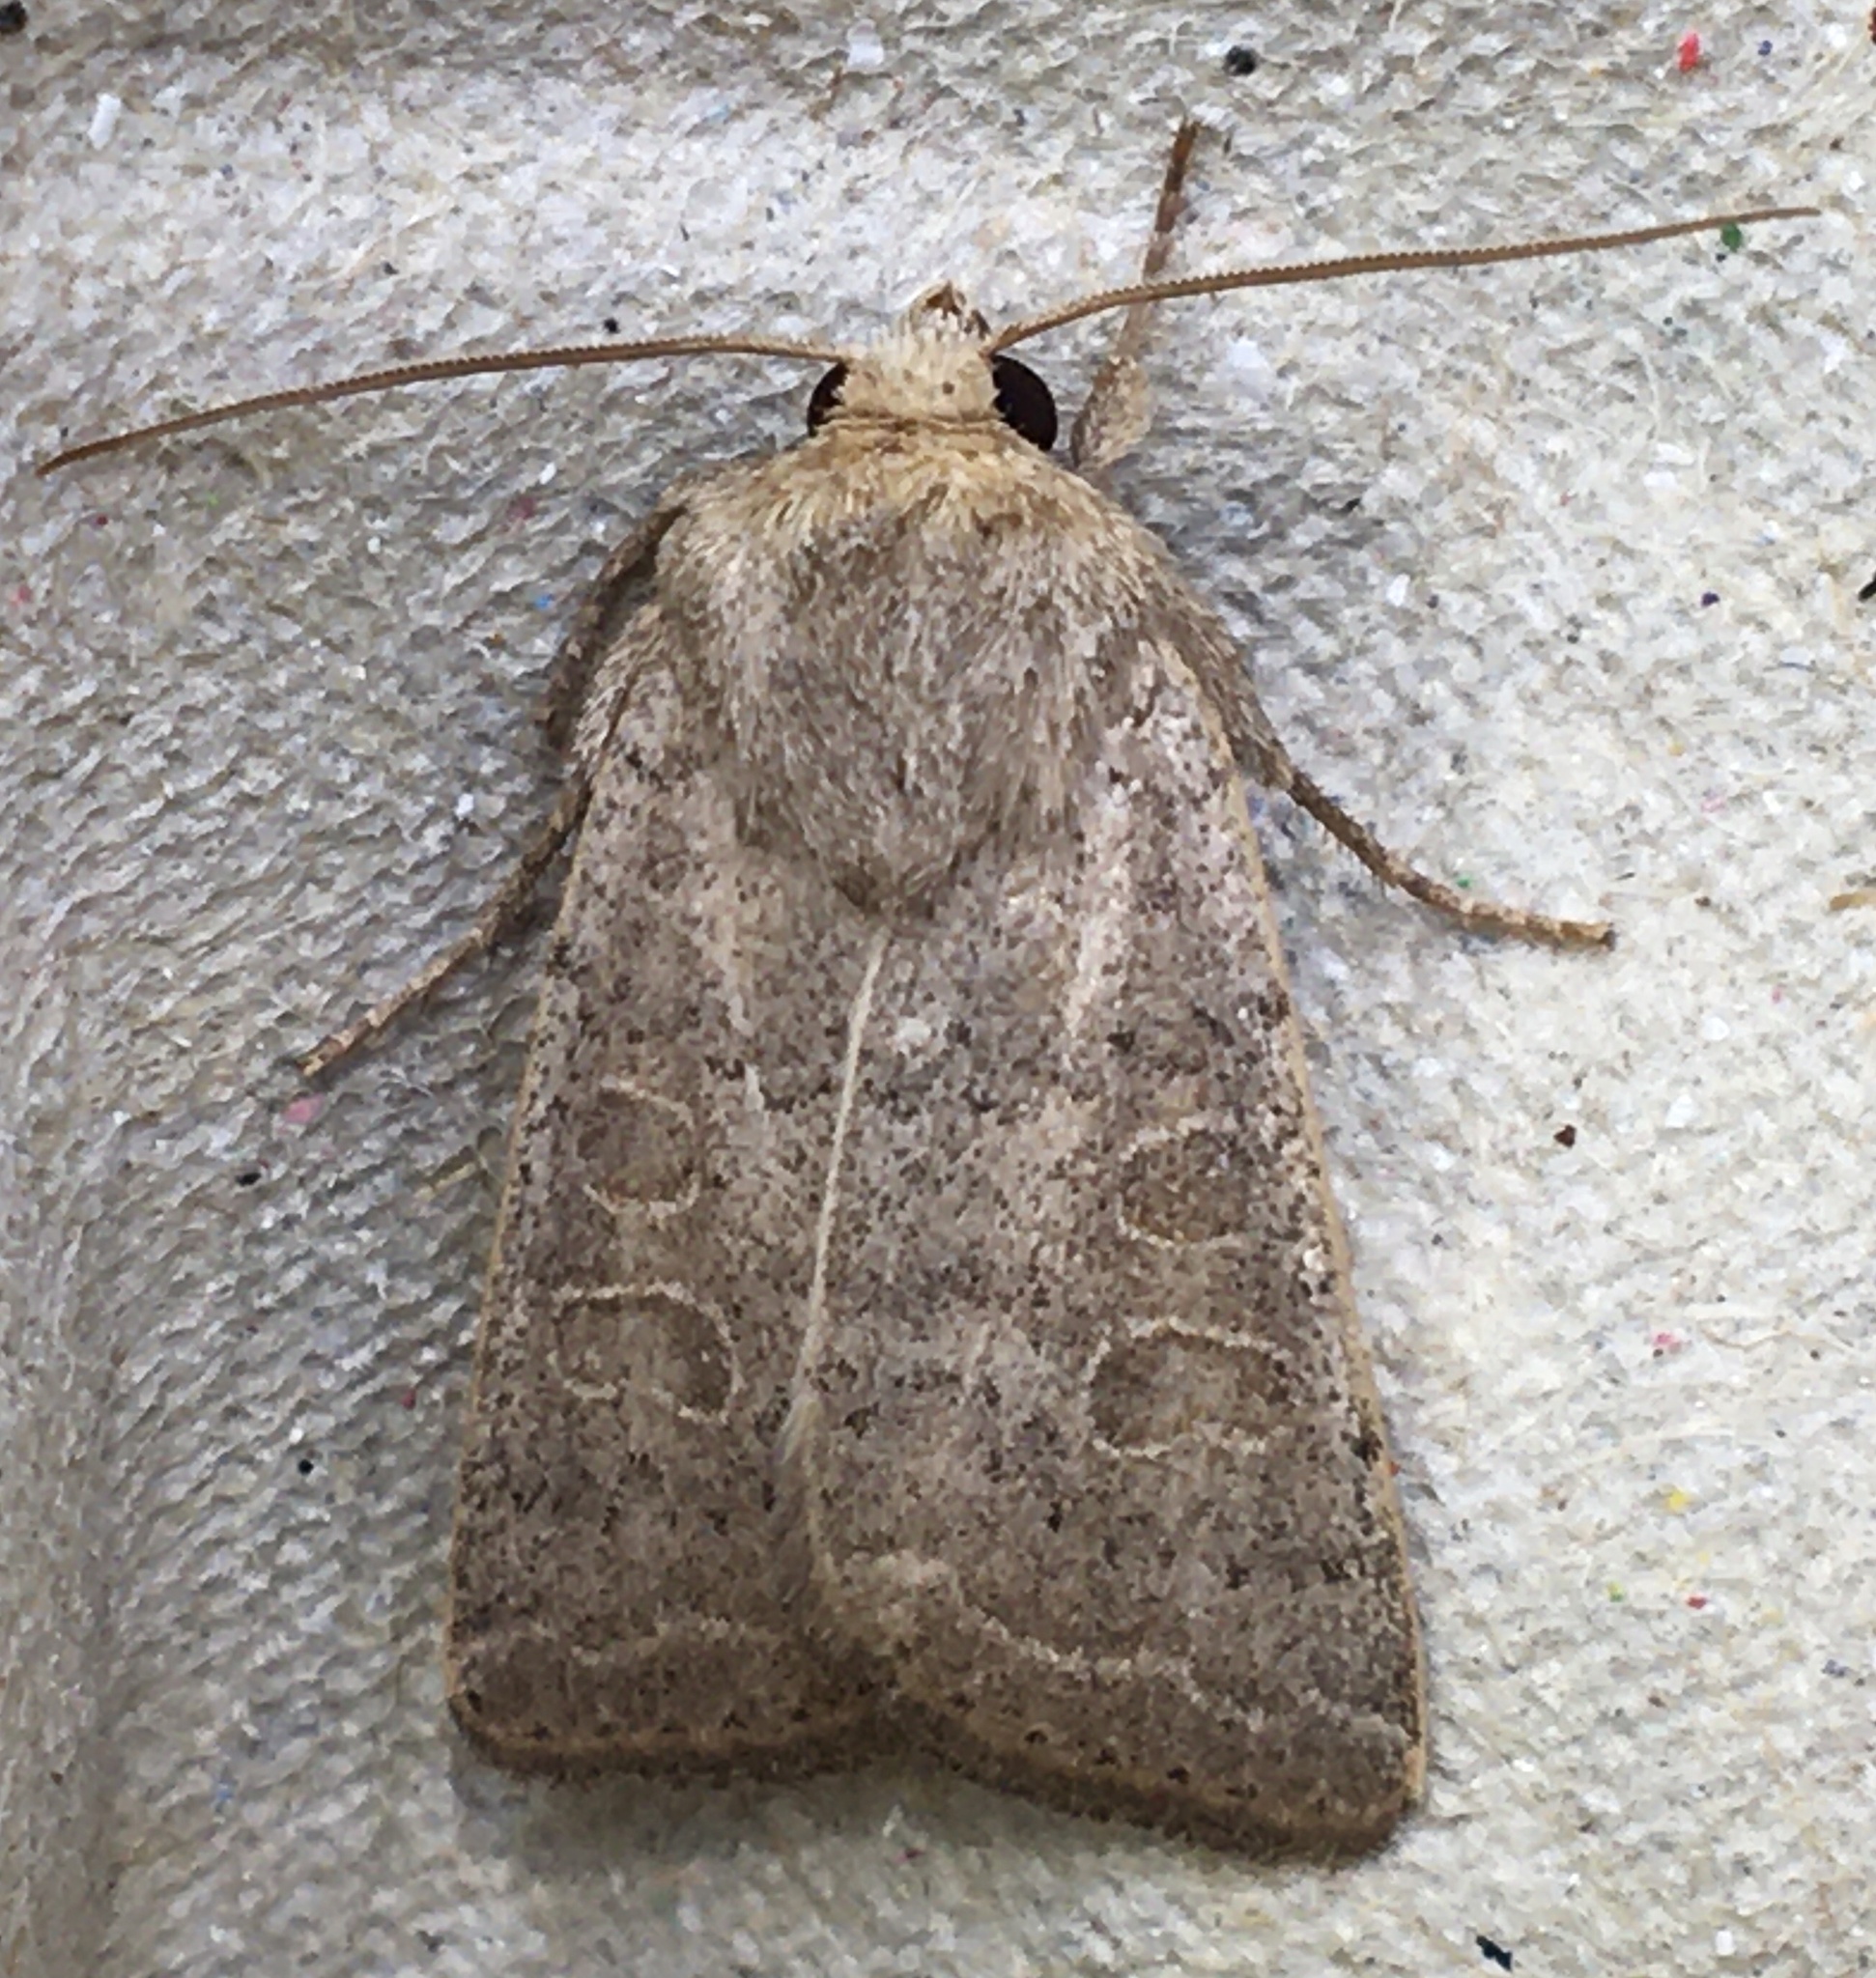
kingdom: Animalia
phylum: Arthropoda
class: Insecta
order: Lepidoptera
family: Noctuidae
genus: Hoplodrina
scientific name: Hoplodrina ambigua
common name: Vine's rustic
